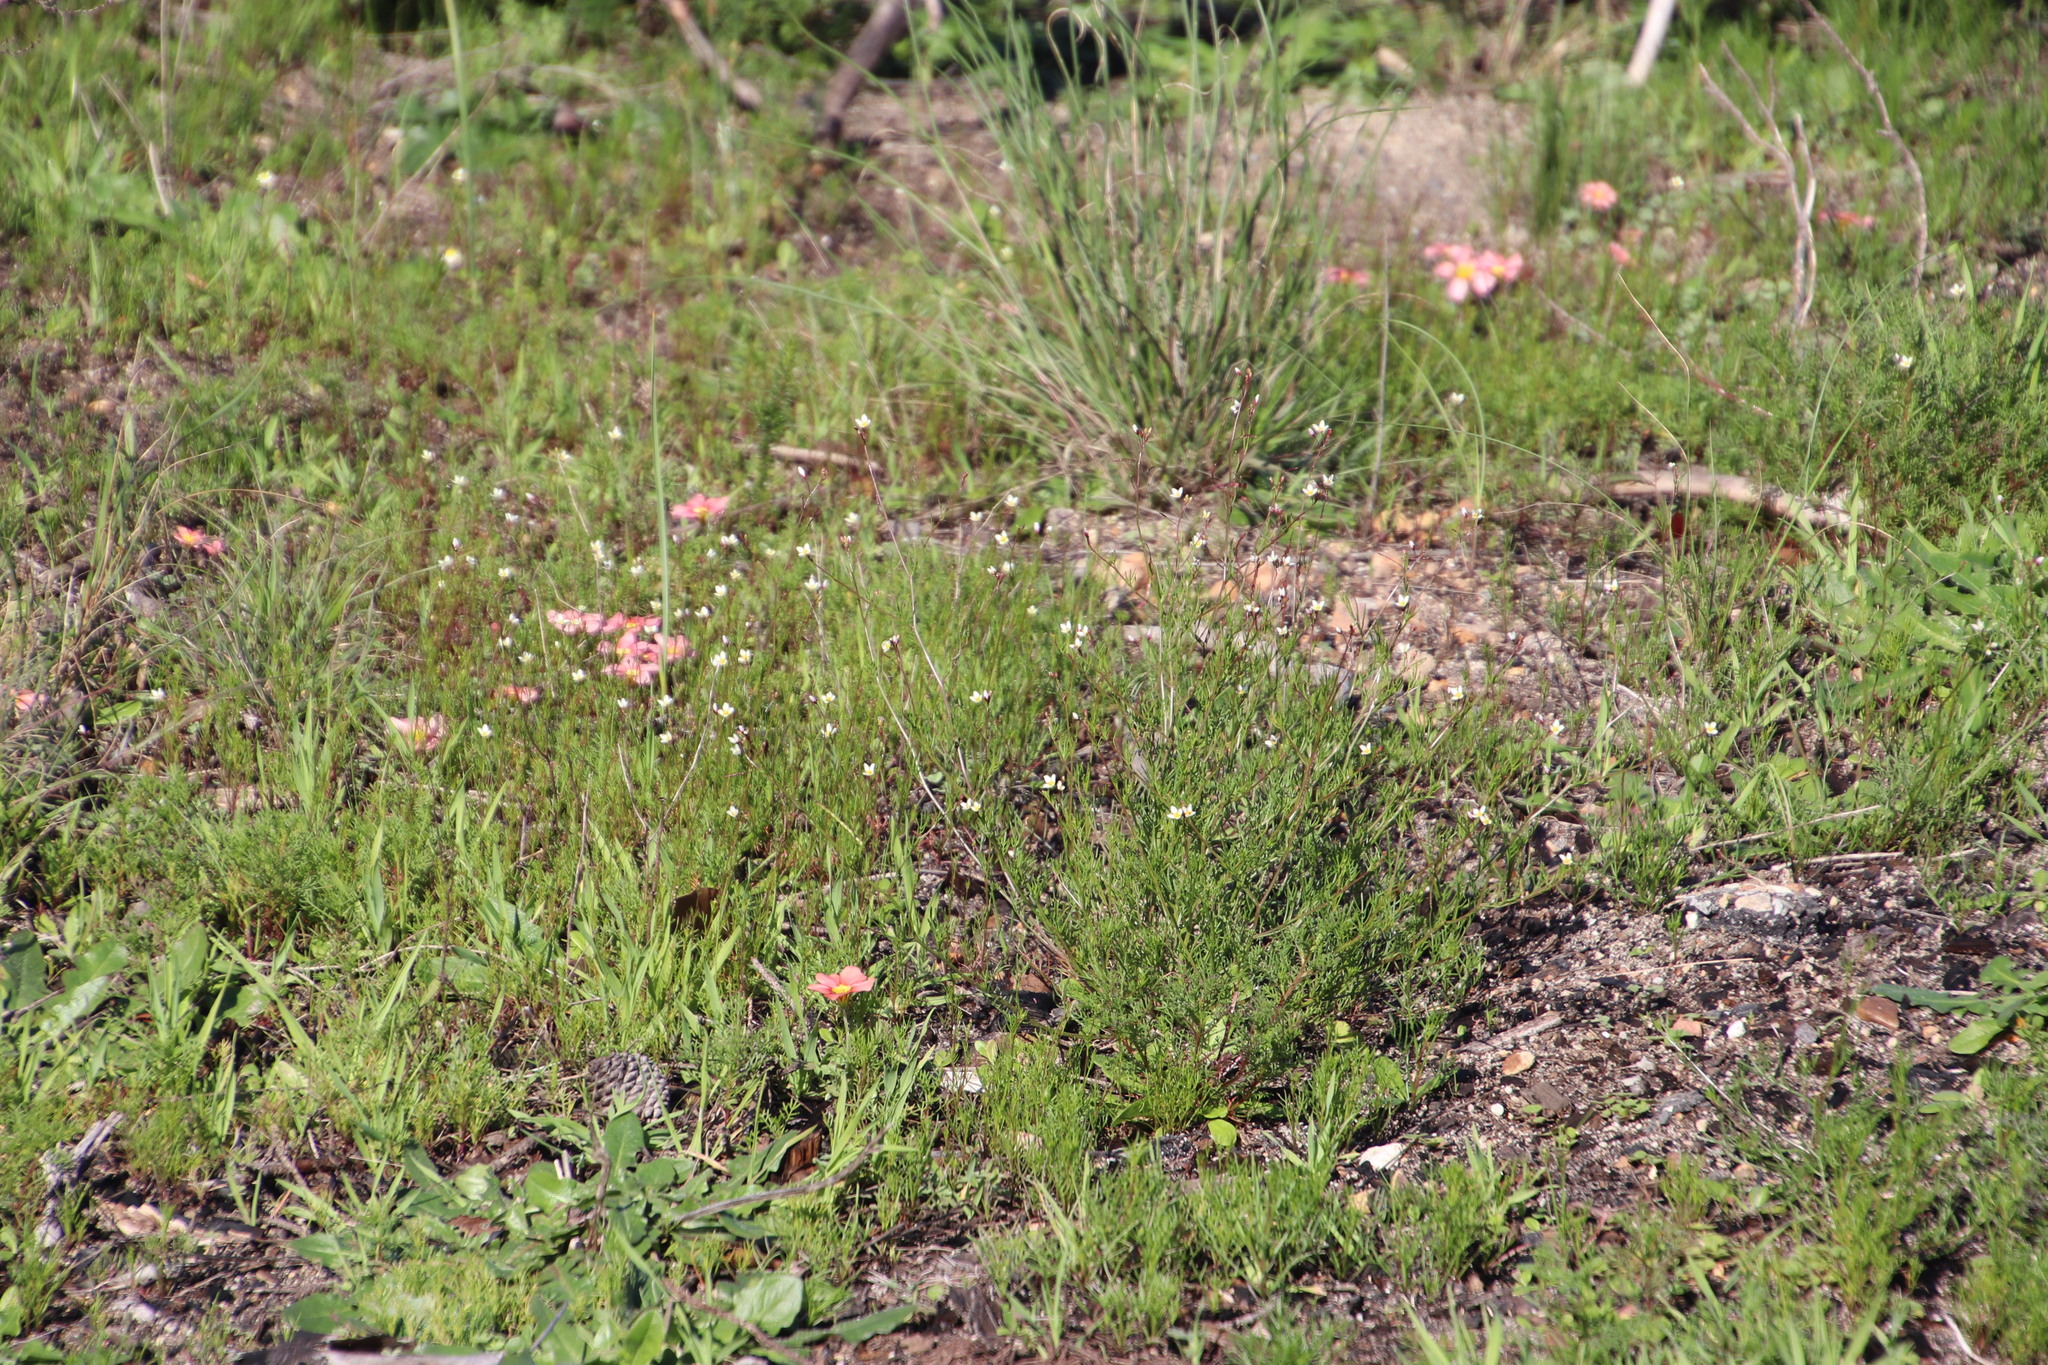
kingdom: Plantae
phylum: Tracheophyta
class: Magnoliopsida
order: Brassicales
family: Brassicaceae
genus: Heliophila
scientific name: Heliophila pendula
